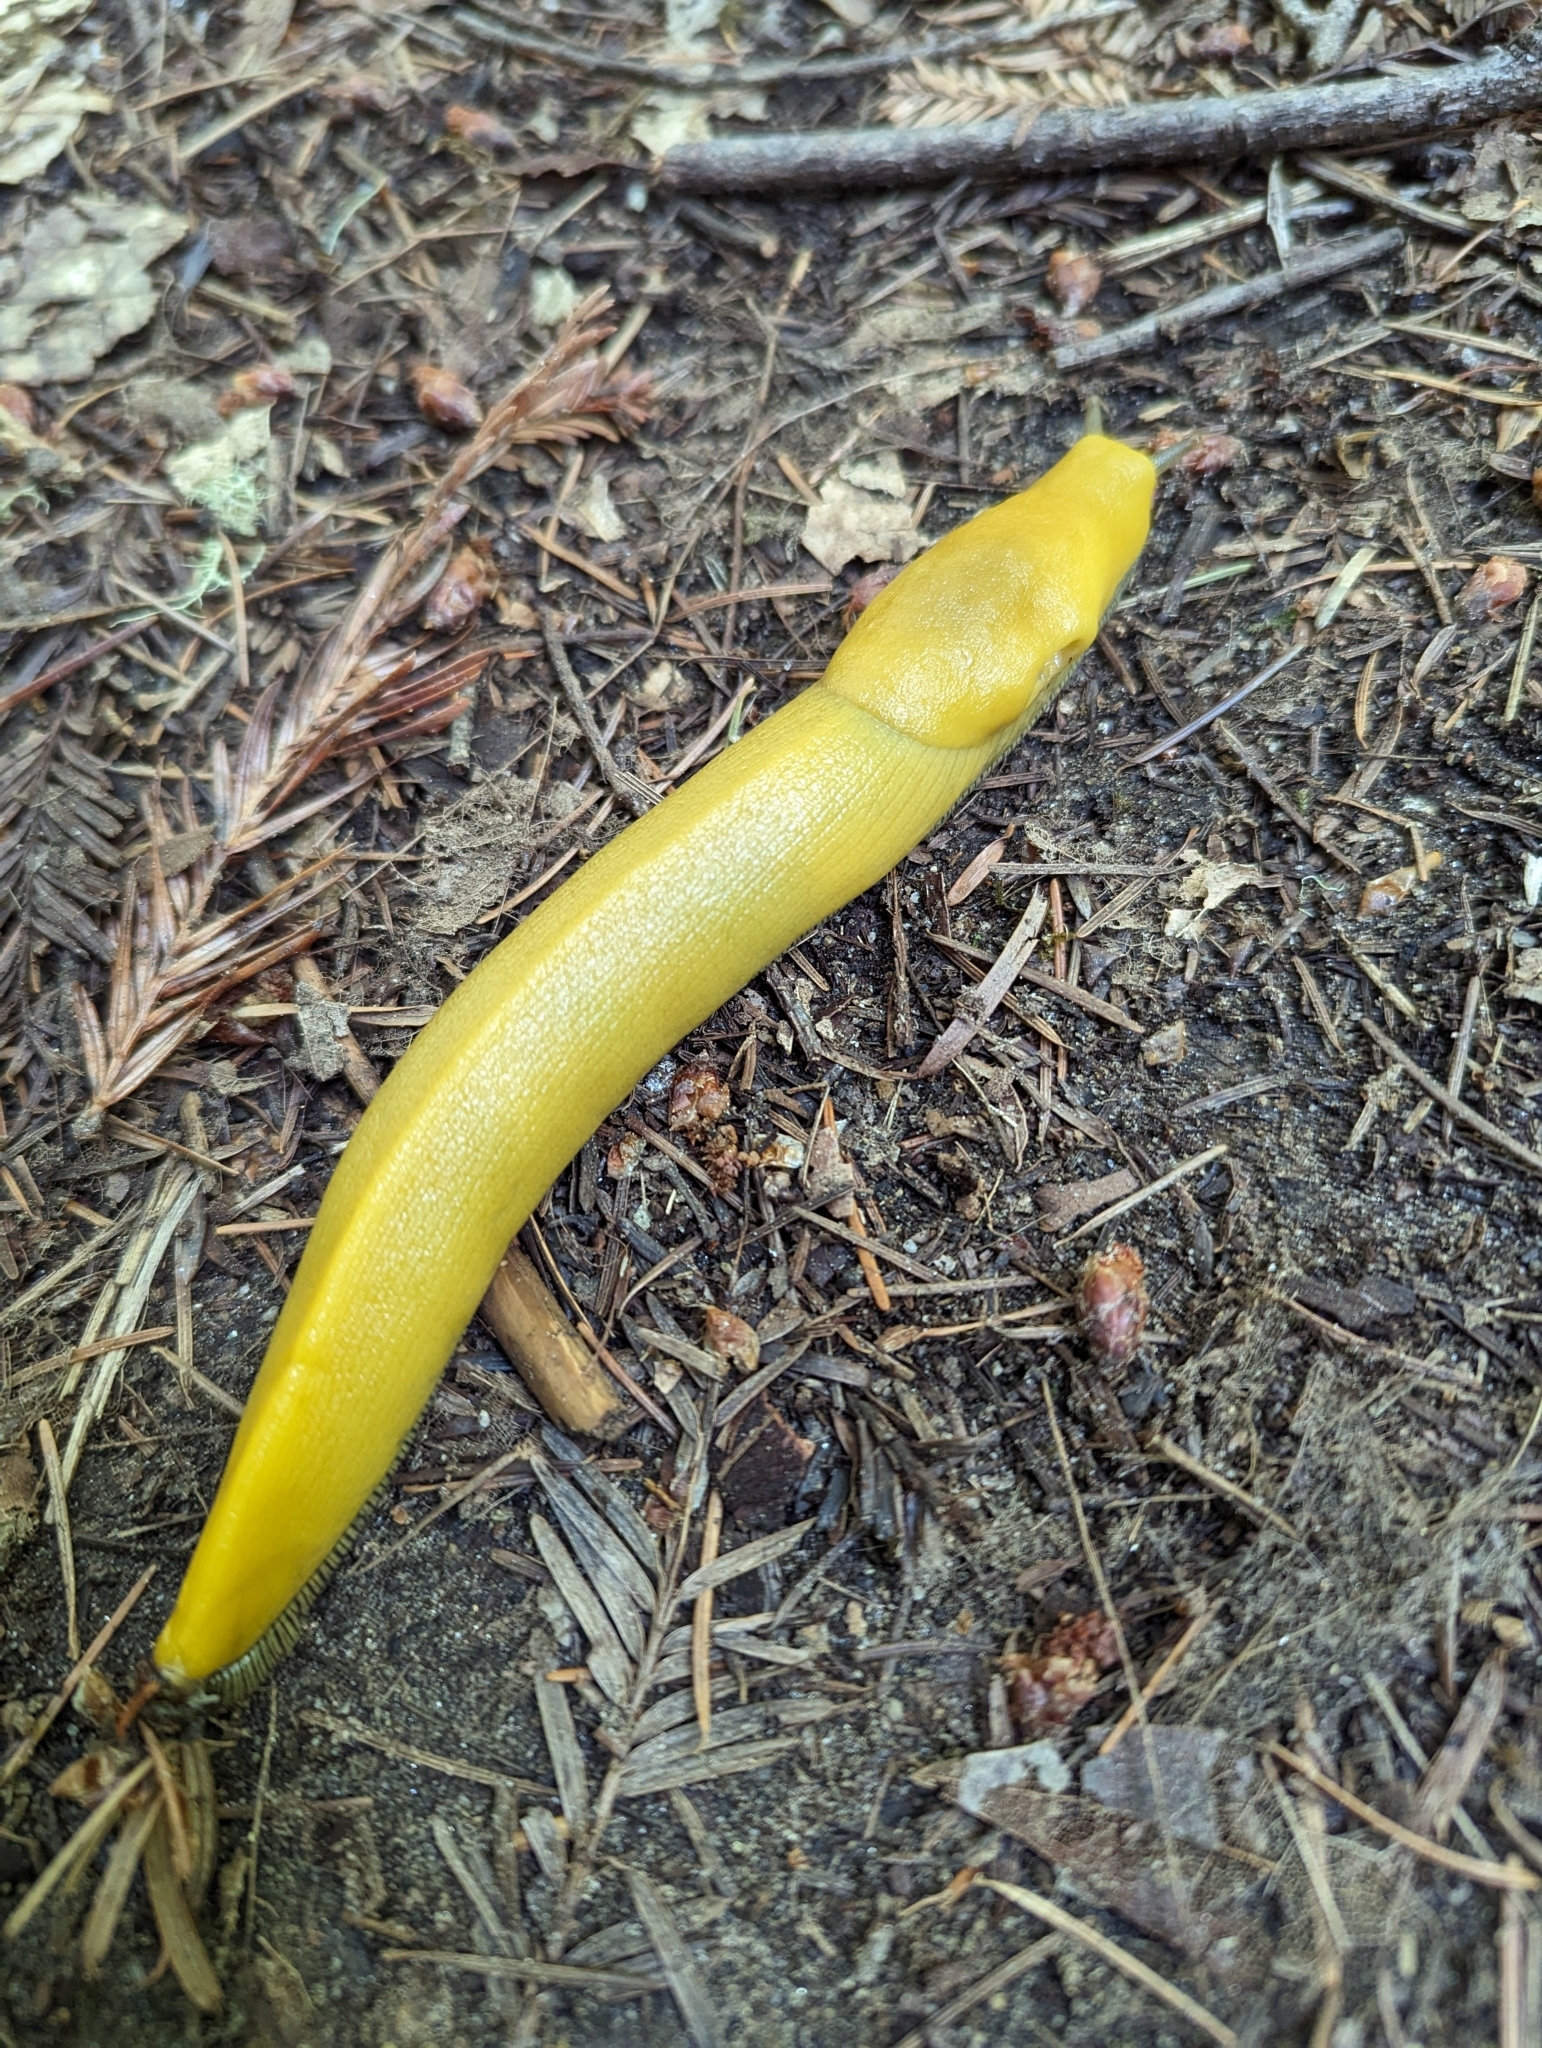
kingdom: Animalia
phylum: Mollusca
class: Gastropoda
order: Stylommatophora
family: Ariolimacidae
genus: Ariolimax
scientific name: Ariolimax dolichophallus
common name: Slender banana slug
